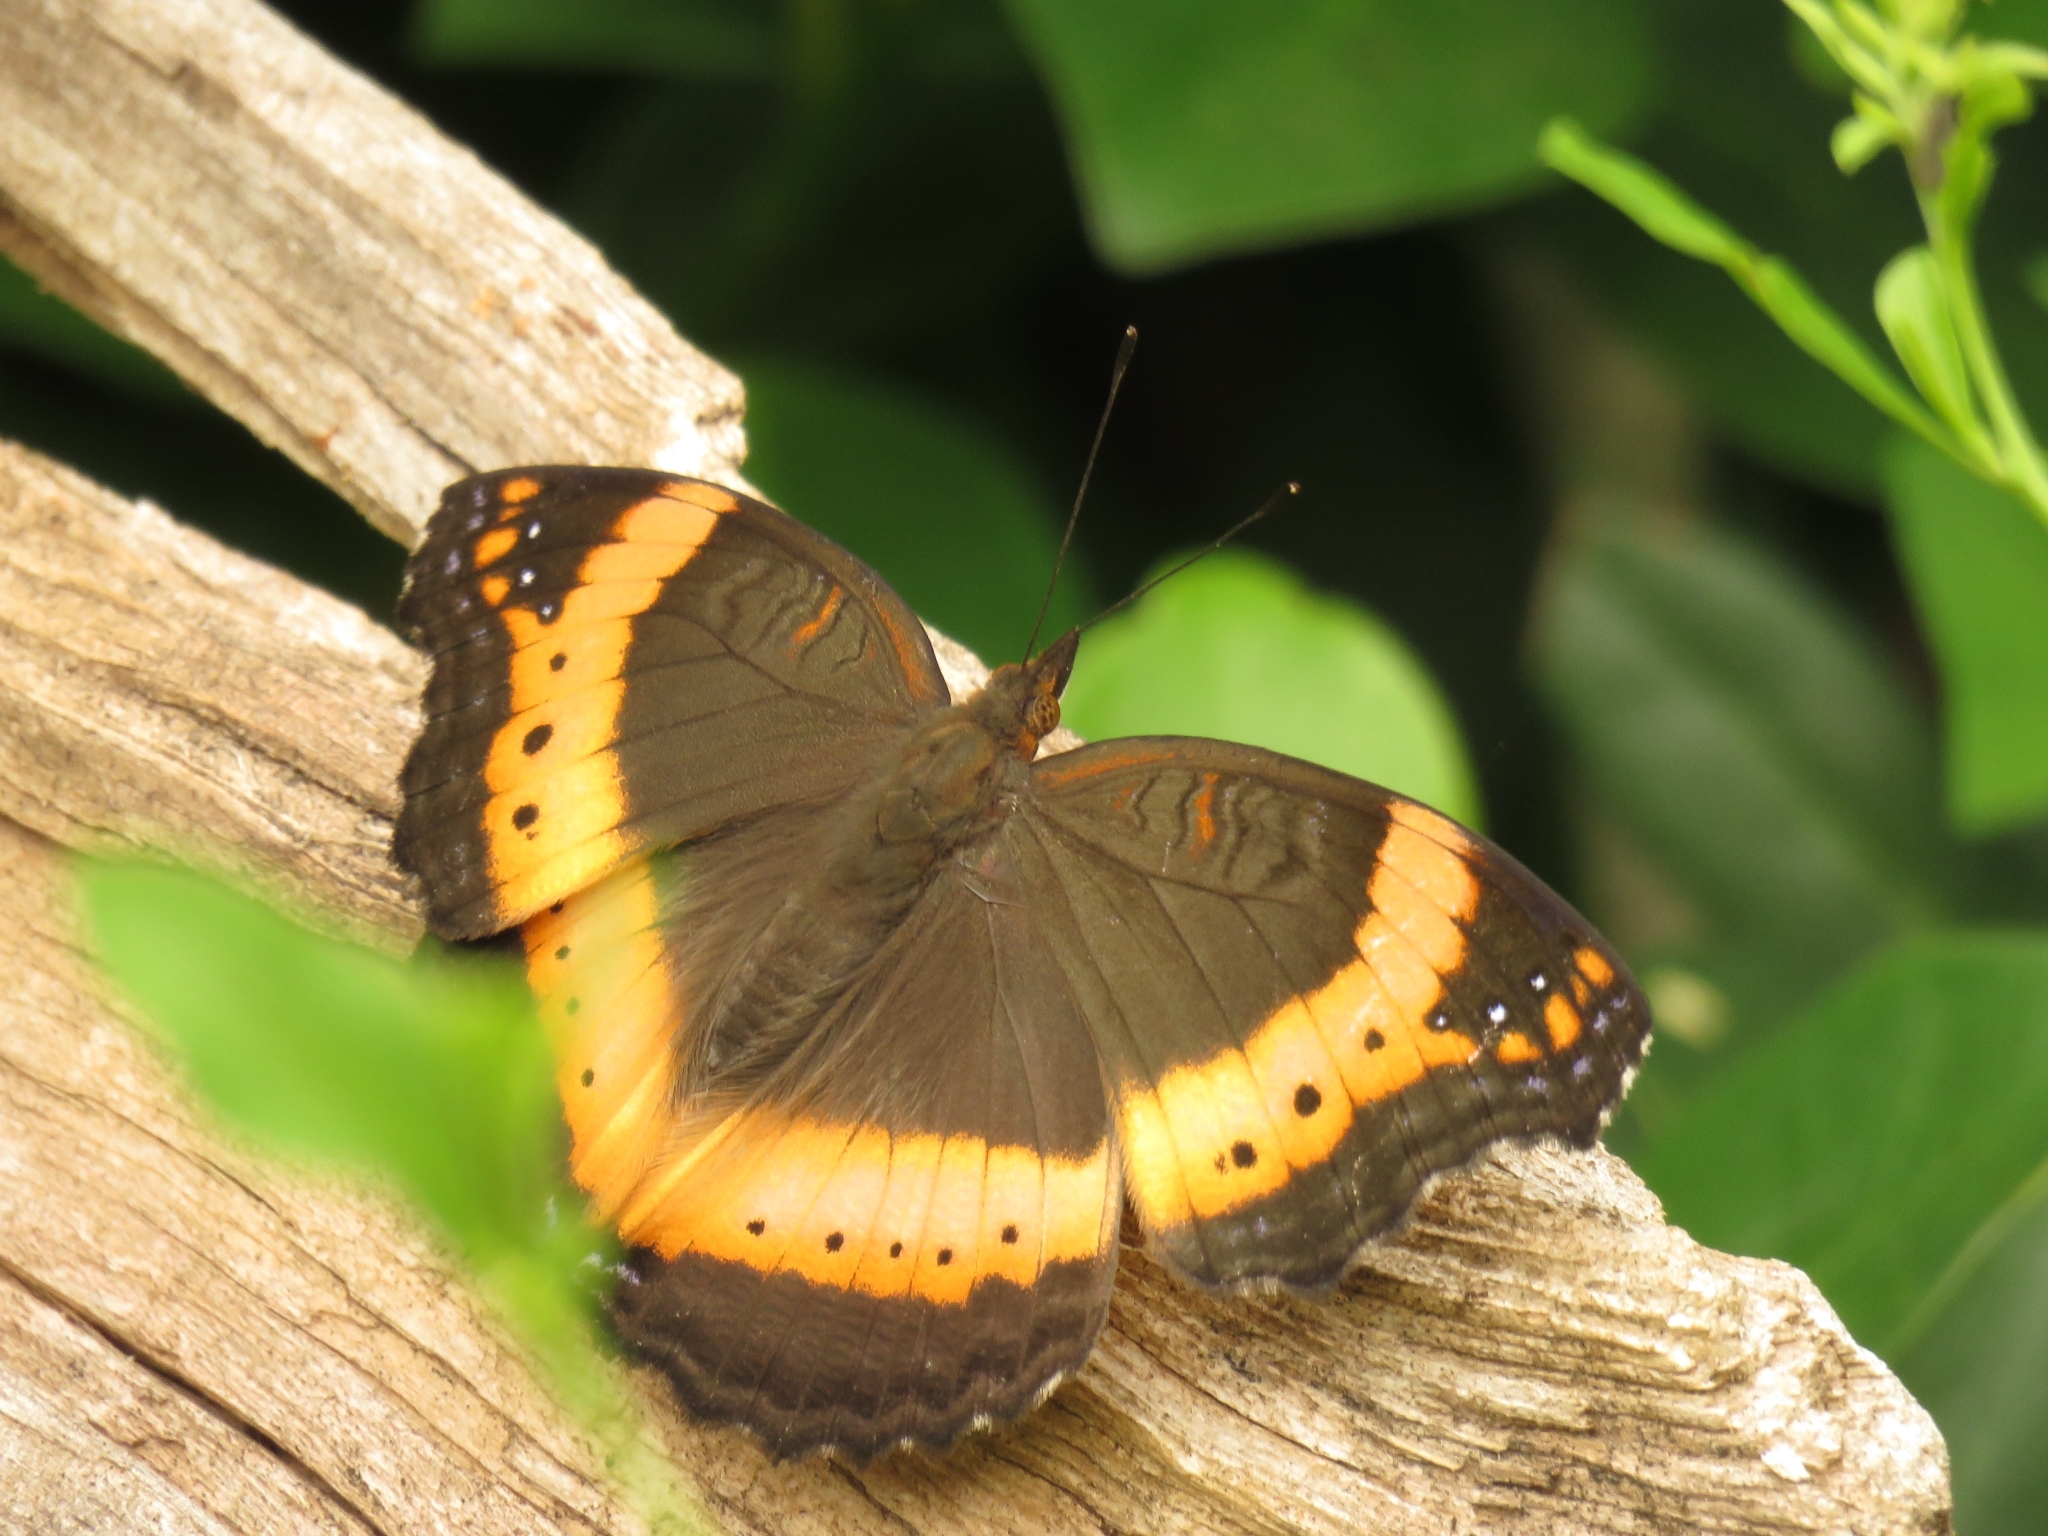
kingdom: Animalia
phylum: Arthropoda
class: Insecta
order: Lepidoptera
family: Nymphalidae
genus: Junonia
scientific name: Junonia archesia
